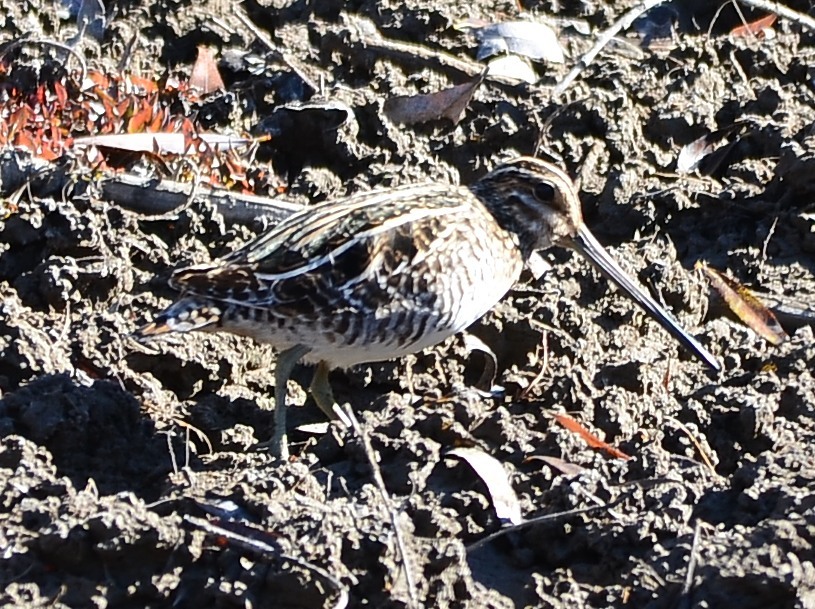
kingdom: Animalia
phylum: Chordata
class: Aves
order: Charadriiformes
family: Scolopacidae
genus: Gallinago
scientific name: Gallinago delicata
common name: Wilson's snipe
